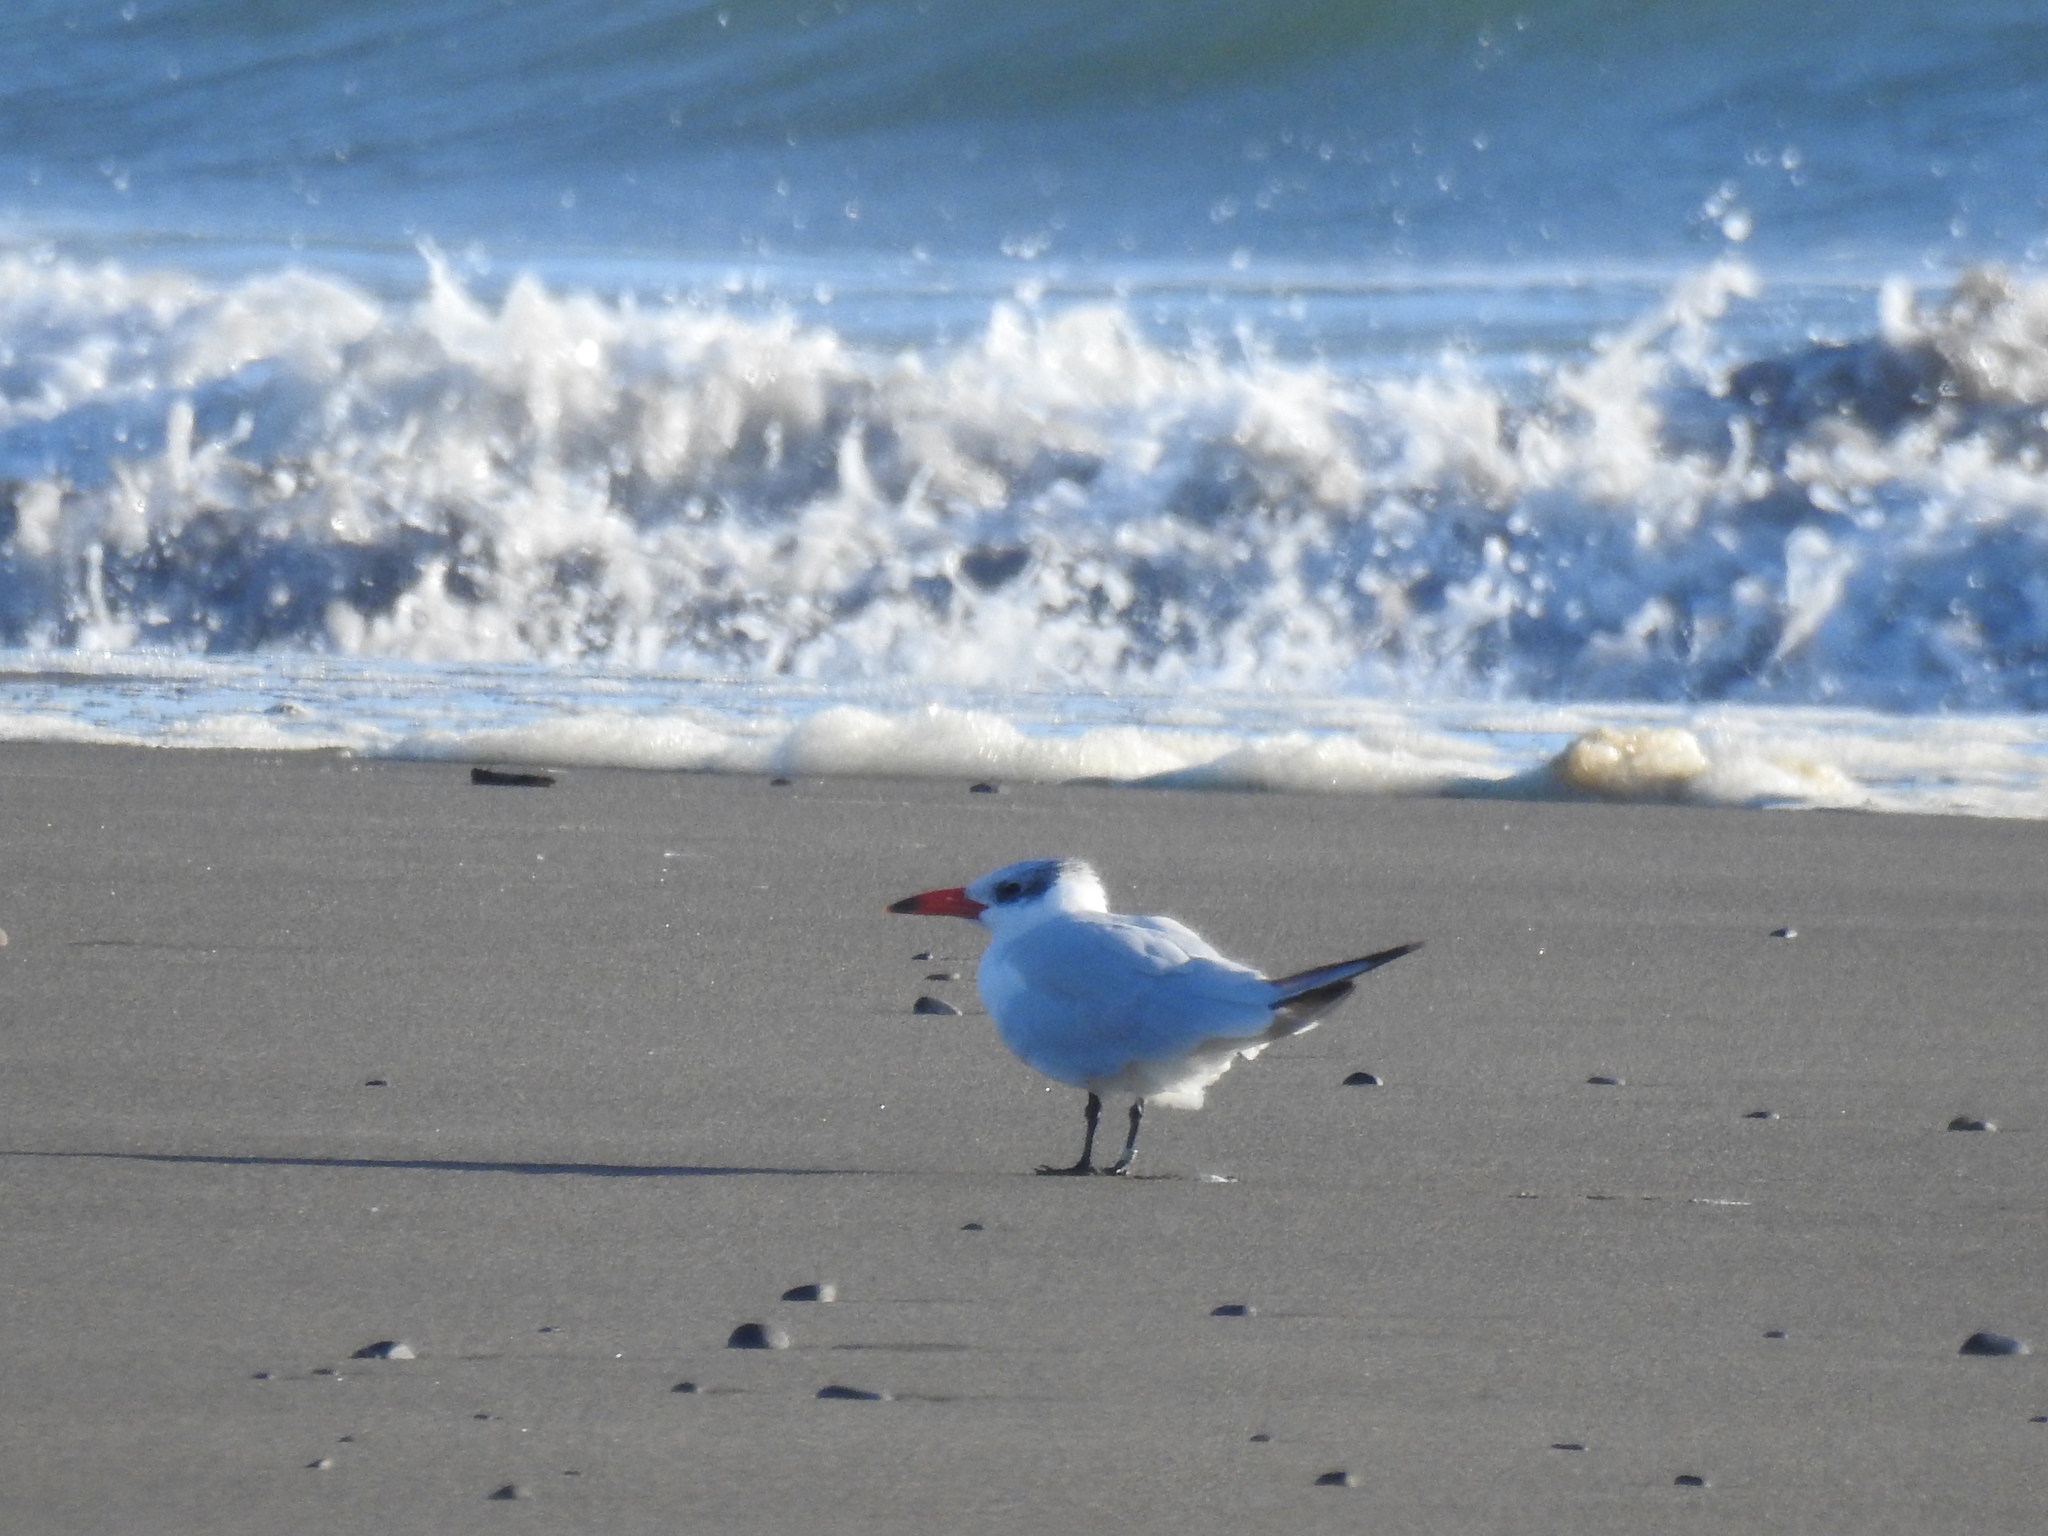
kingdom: Animalia
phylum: Chordata
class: Aves
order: Charadriiformes
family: Laridae
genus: Hydroprogne
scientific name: Hydroprogne caspia
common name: Caspian tern
